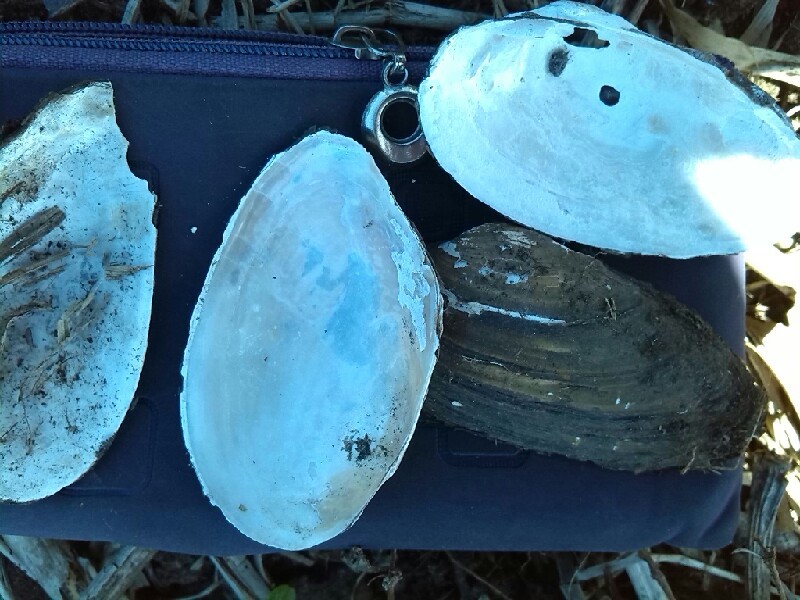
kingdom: Animalia
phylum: Mollusca
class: Bivalvia
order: Unionida
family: Unionidae
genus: Unio
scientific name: Unio tumidus
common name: Swollen river mussel
